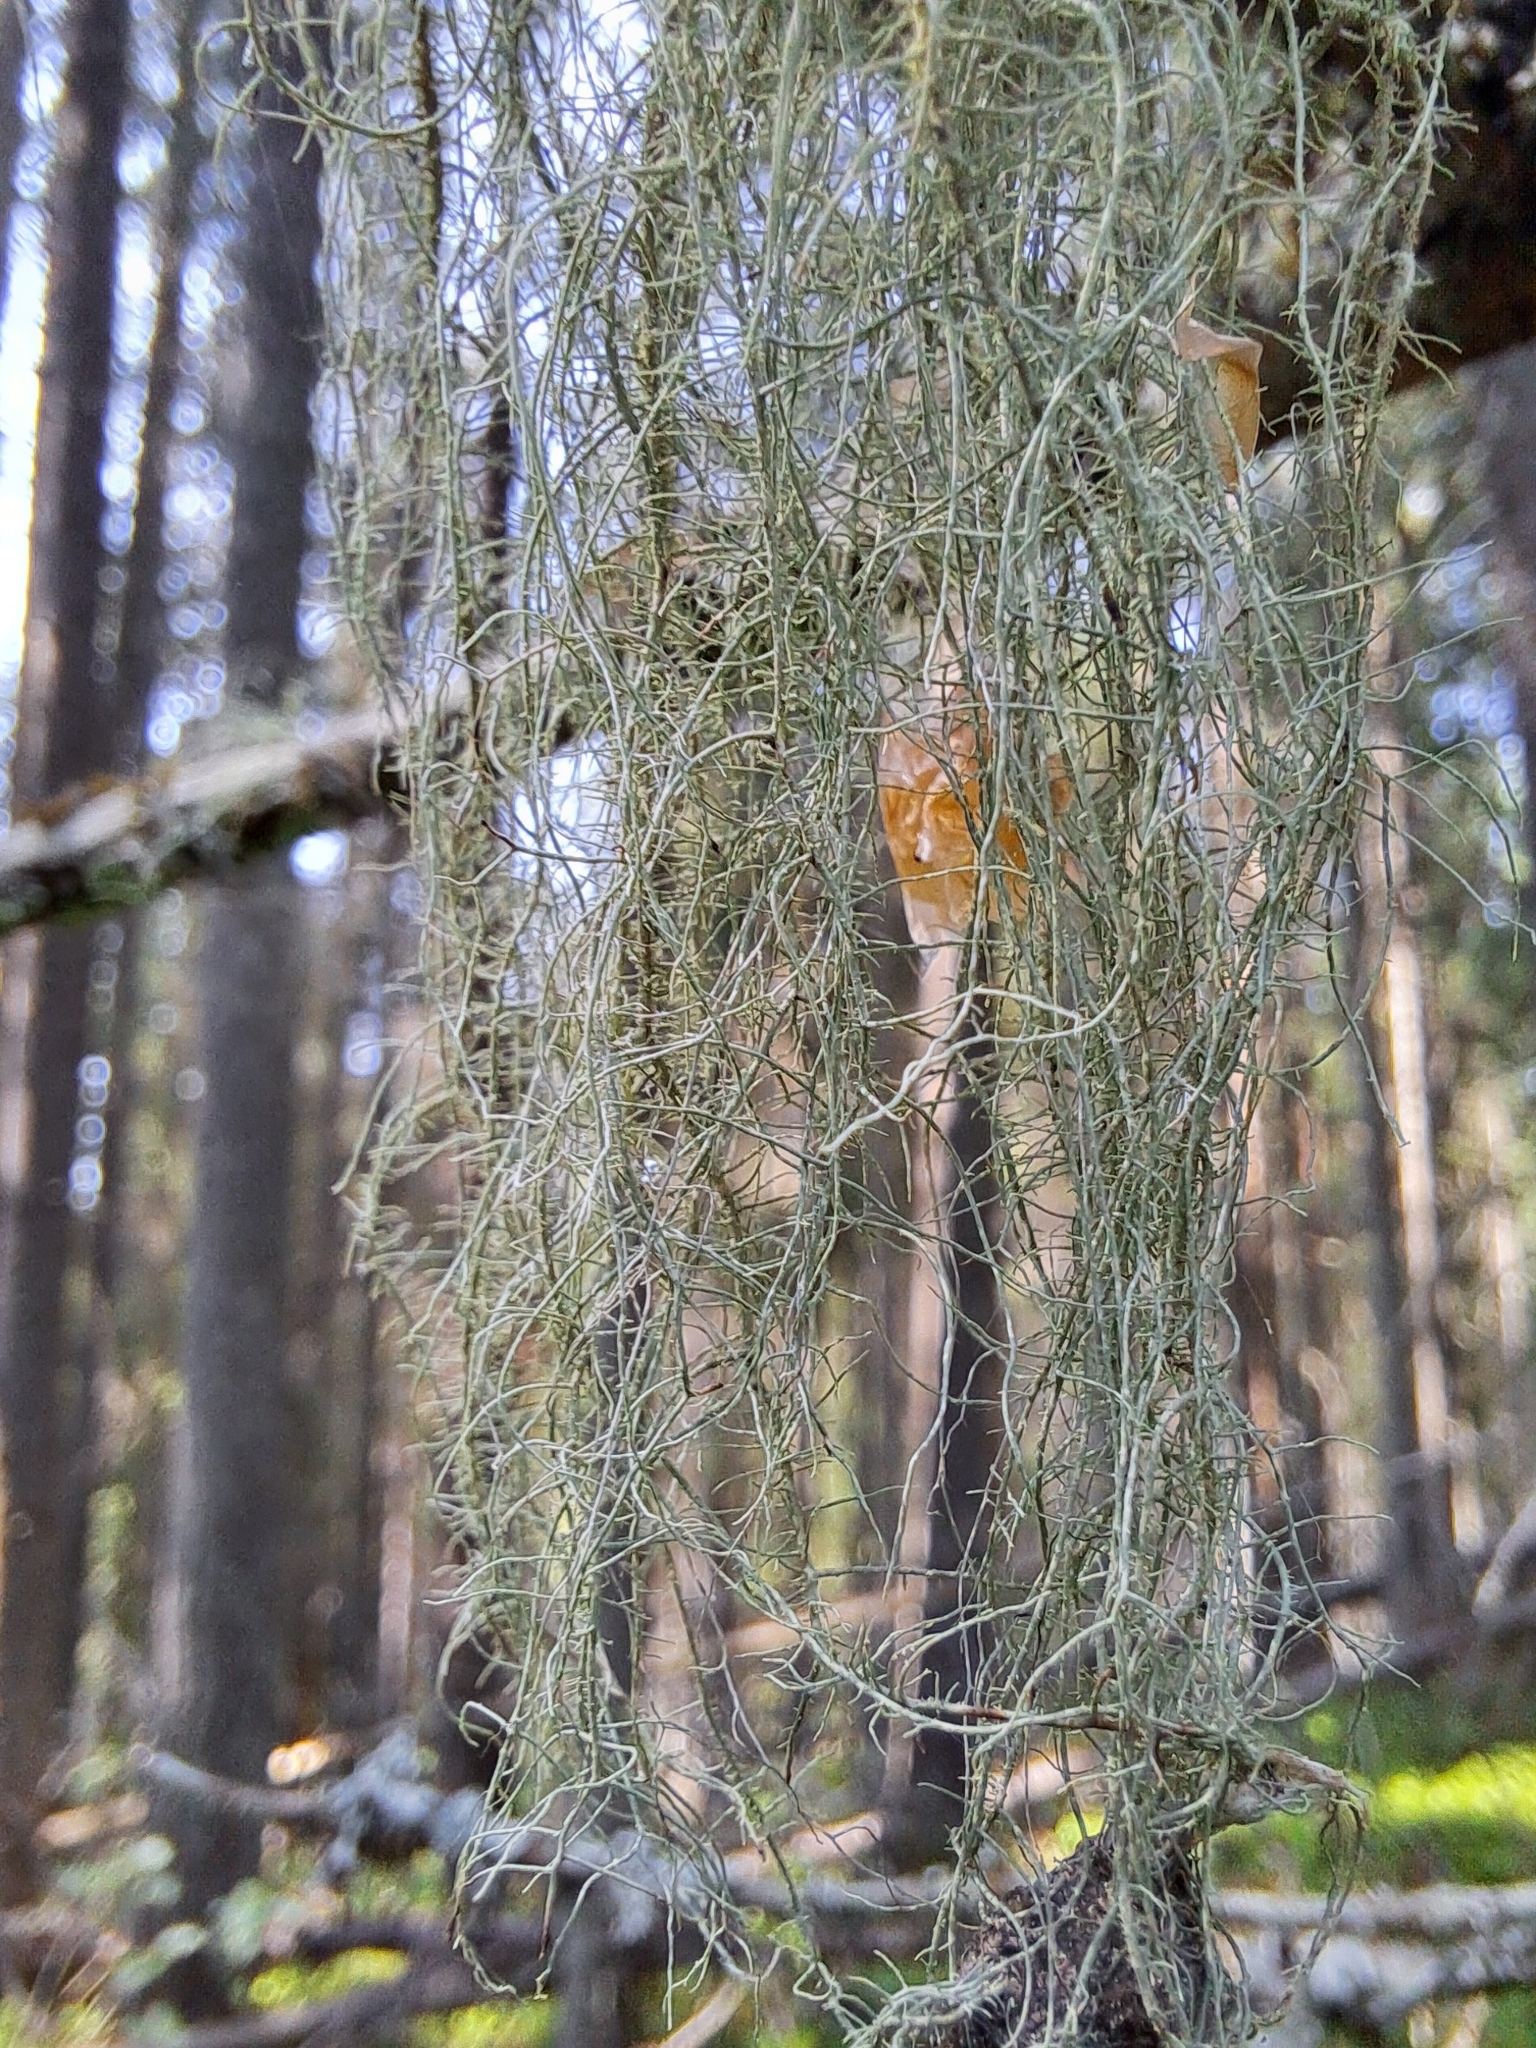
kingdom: Fungi
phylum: Ascomycota
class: Lecanoromycetes
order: Lecanorales
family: Parmeliaceae
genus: Usnea
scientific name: Usnea dasopoga
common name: Fishbone beard lichen
